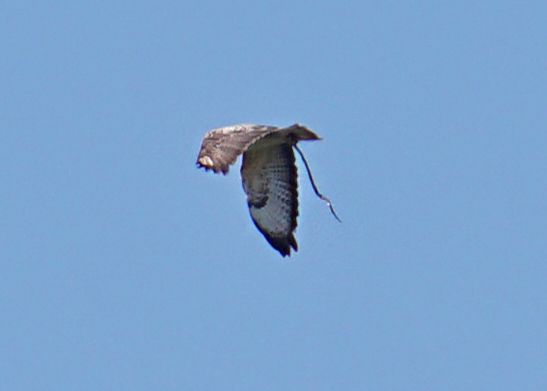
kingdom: Animalia
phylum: Chordata
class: Aves
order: Accipitriformes
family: Accipitridae
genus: Buteo
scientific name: Buteo buteo
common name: Common buzzard
